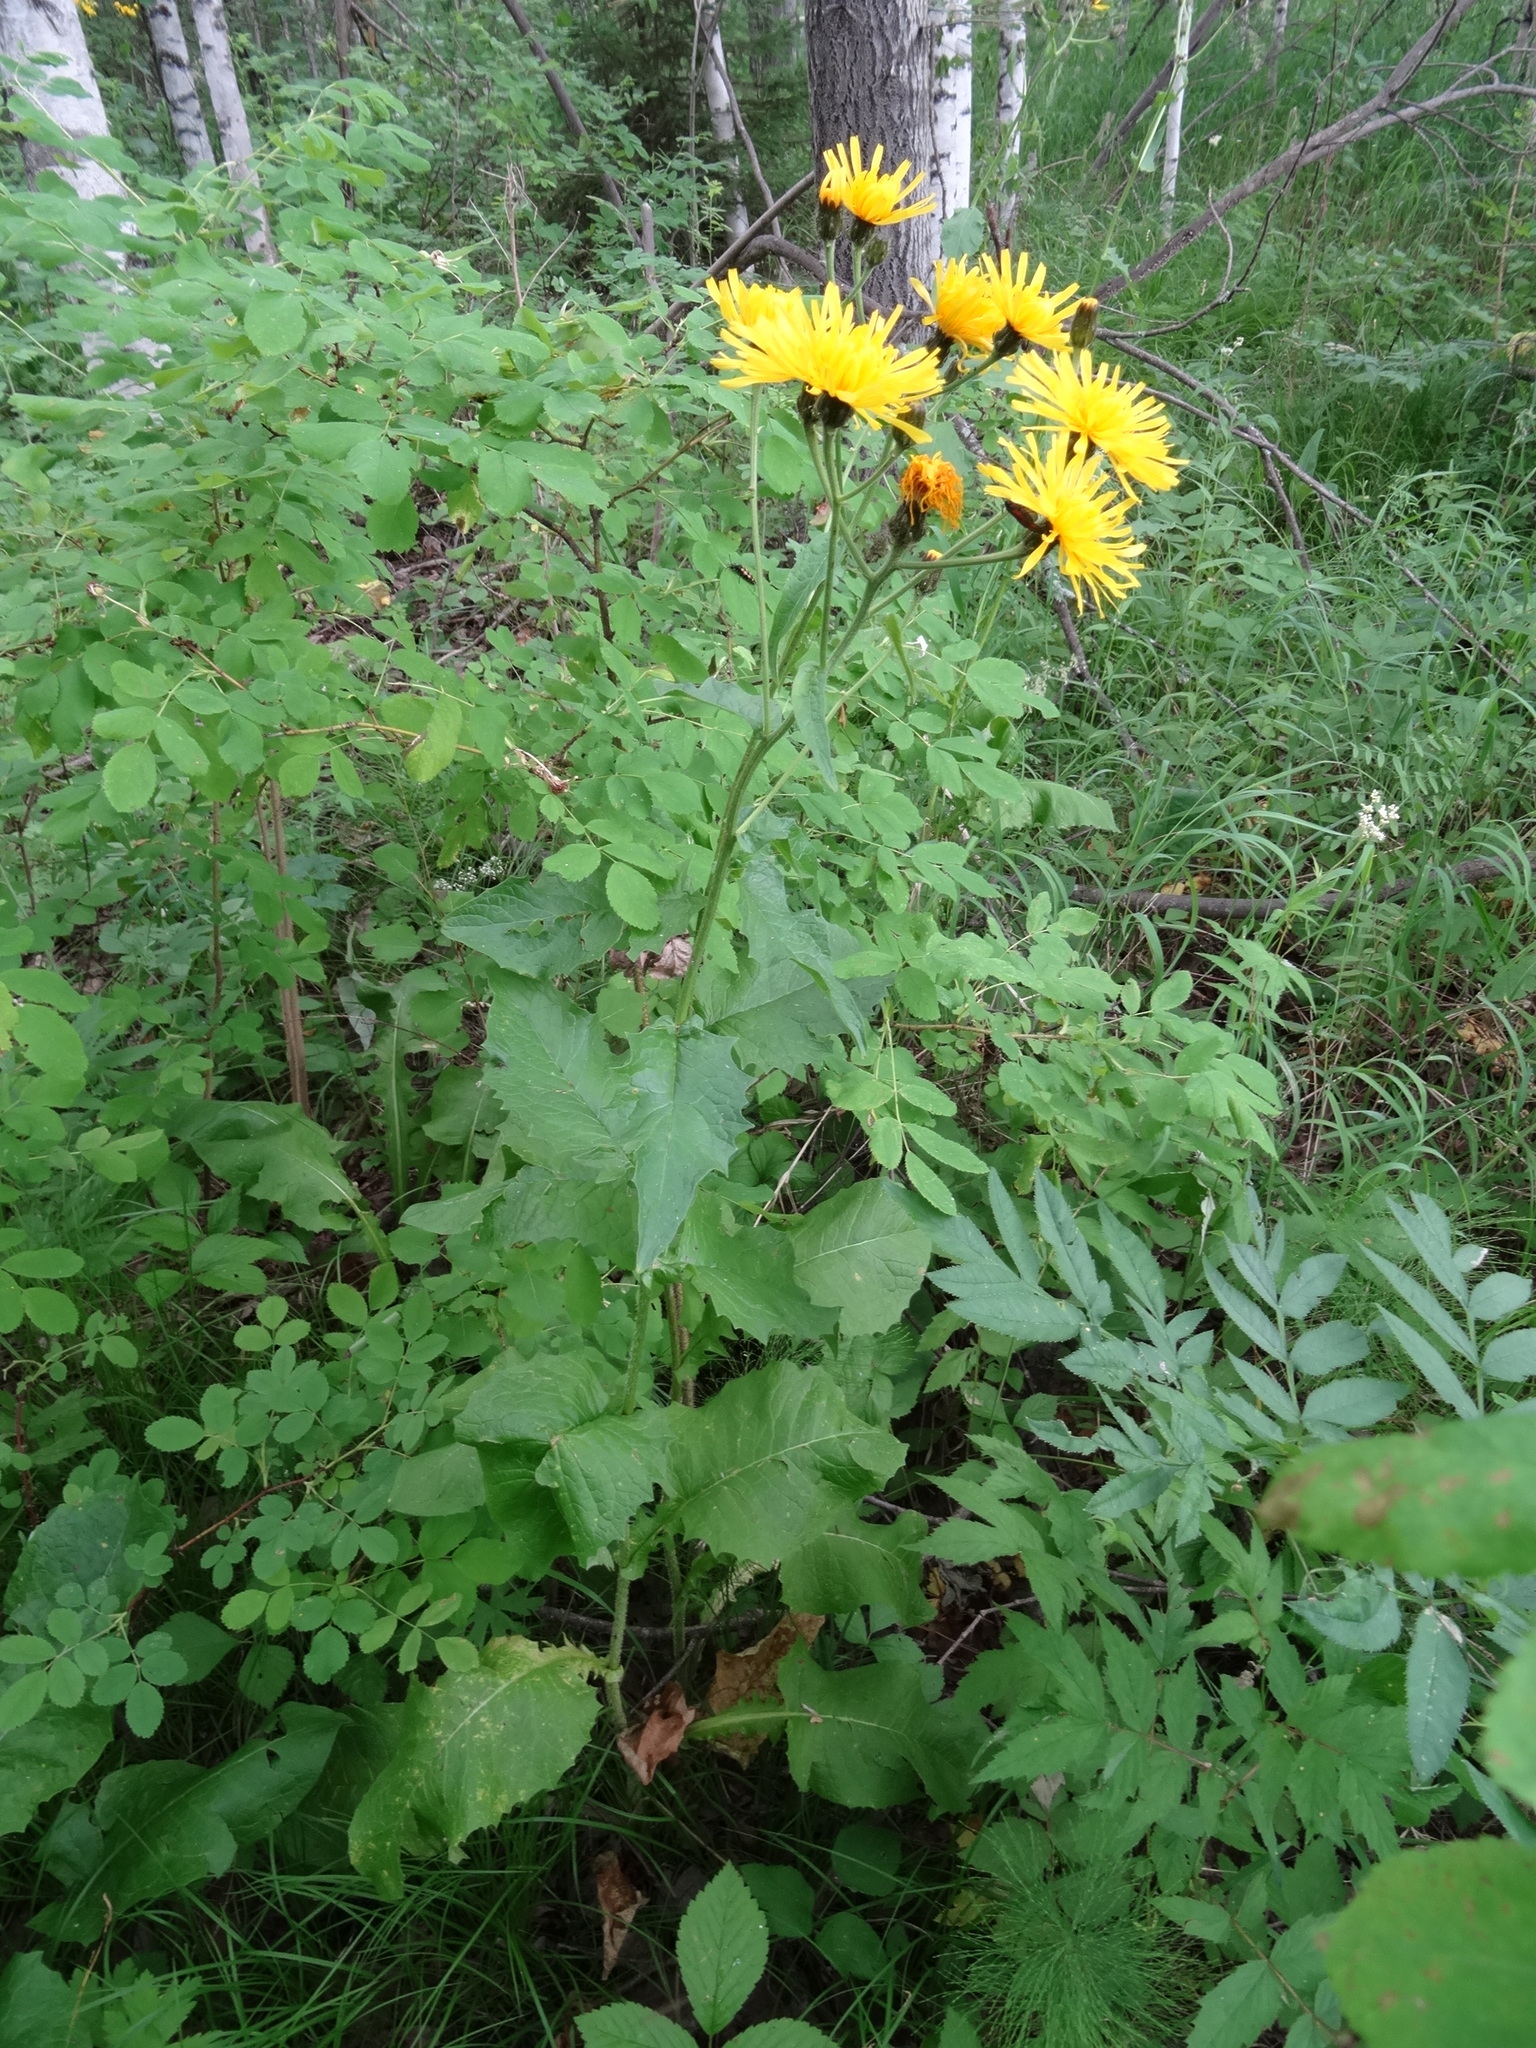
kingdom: Plantae
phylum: Tracheophyta
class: Magnoliopsida
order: Asterales
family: Asteraceae
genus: Crepis
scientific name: Crepis sibirica
